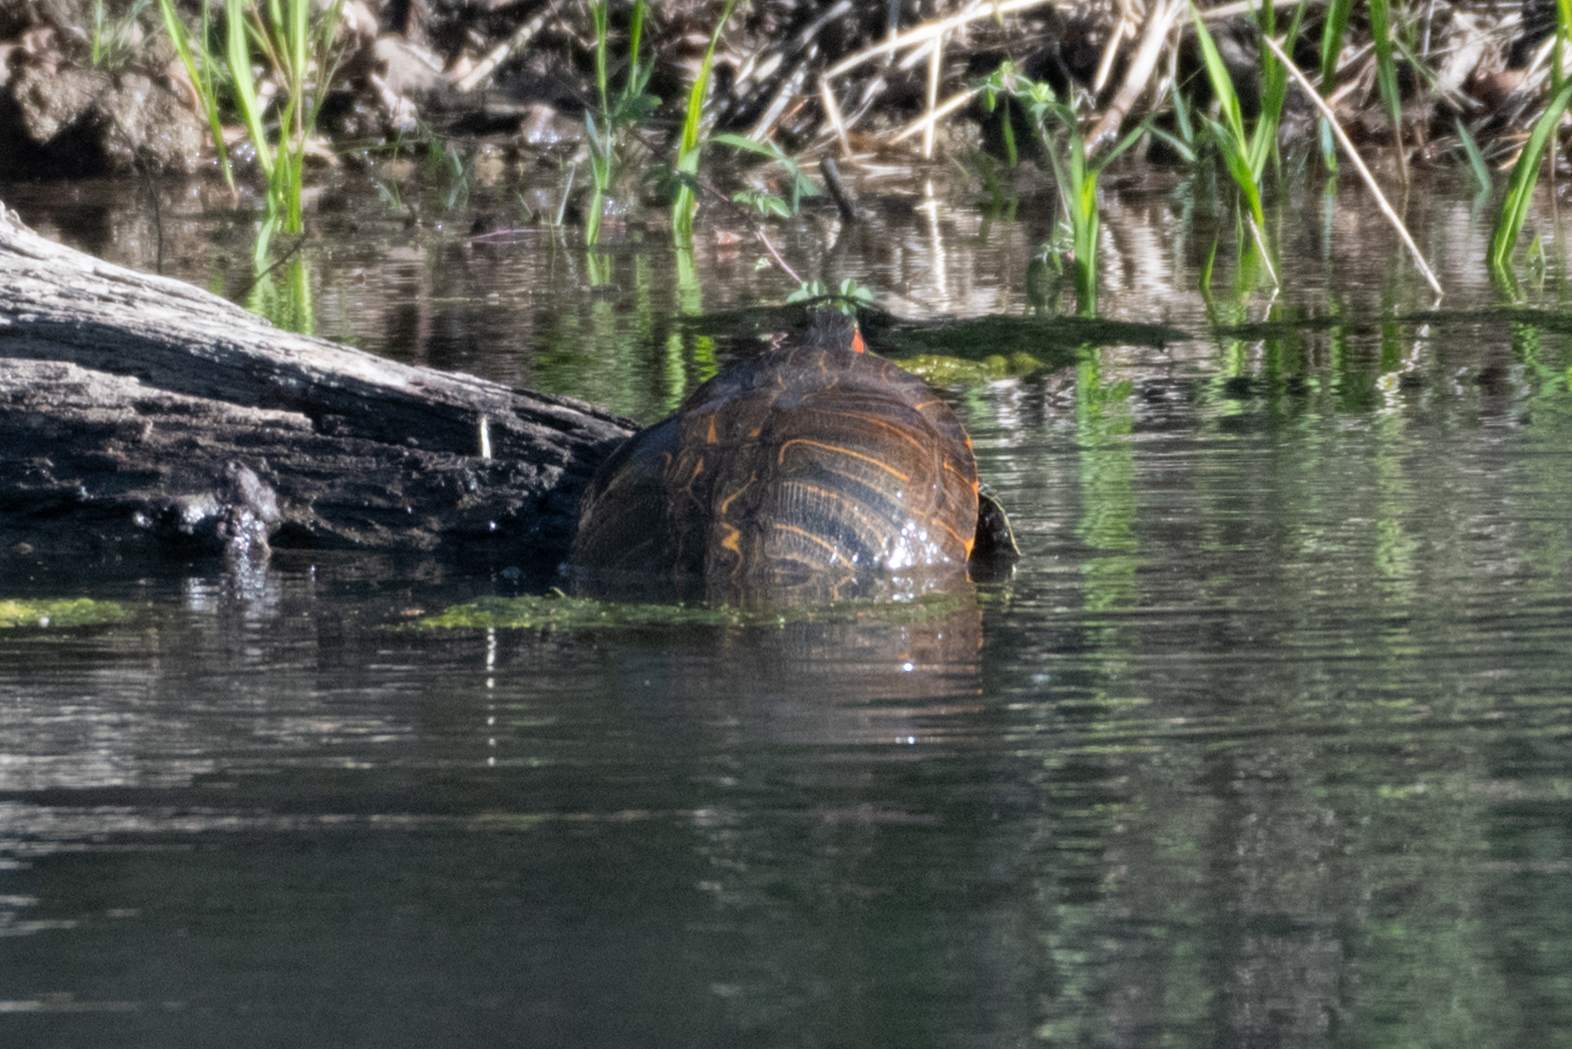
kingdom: Animalia
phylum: Chordata
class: Testudines
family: Emydidae
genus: Trachemys
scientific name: Trachemys scripta
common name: Slider
